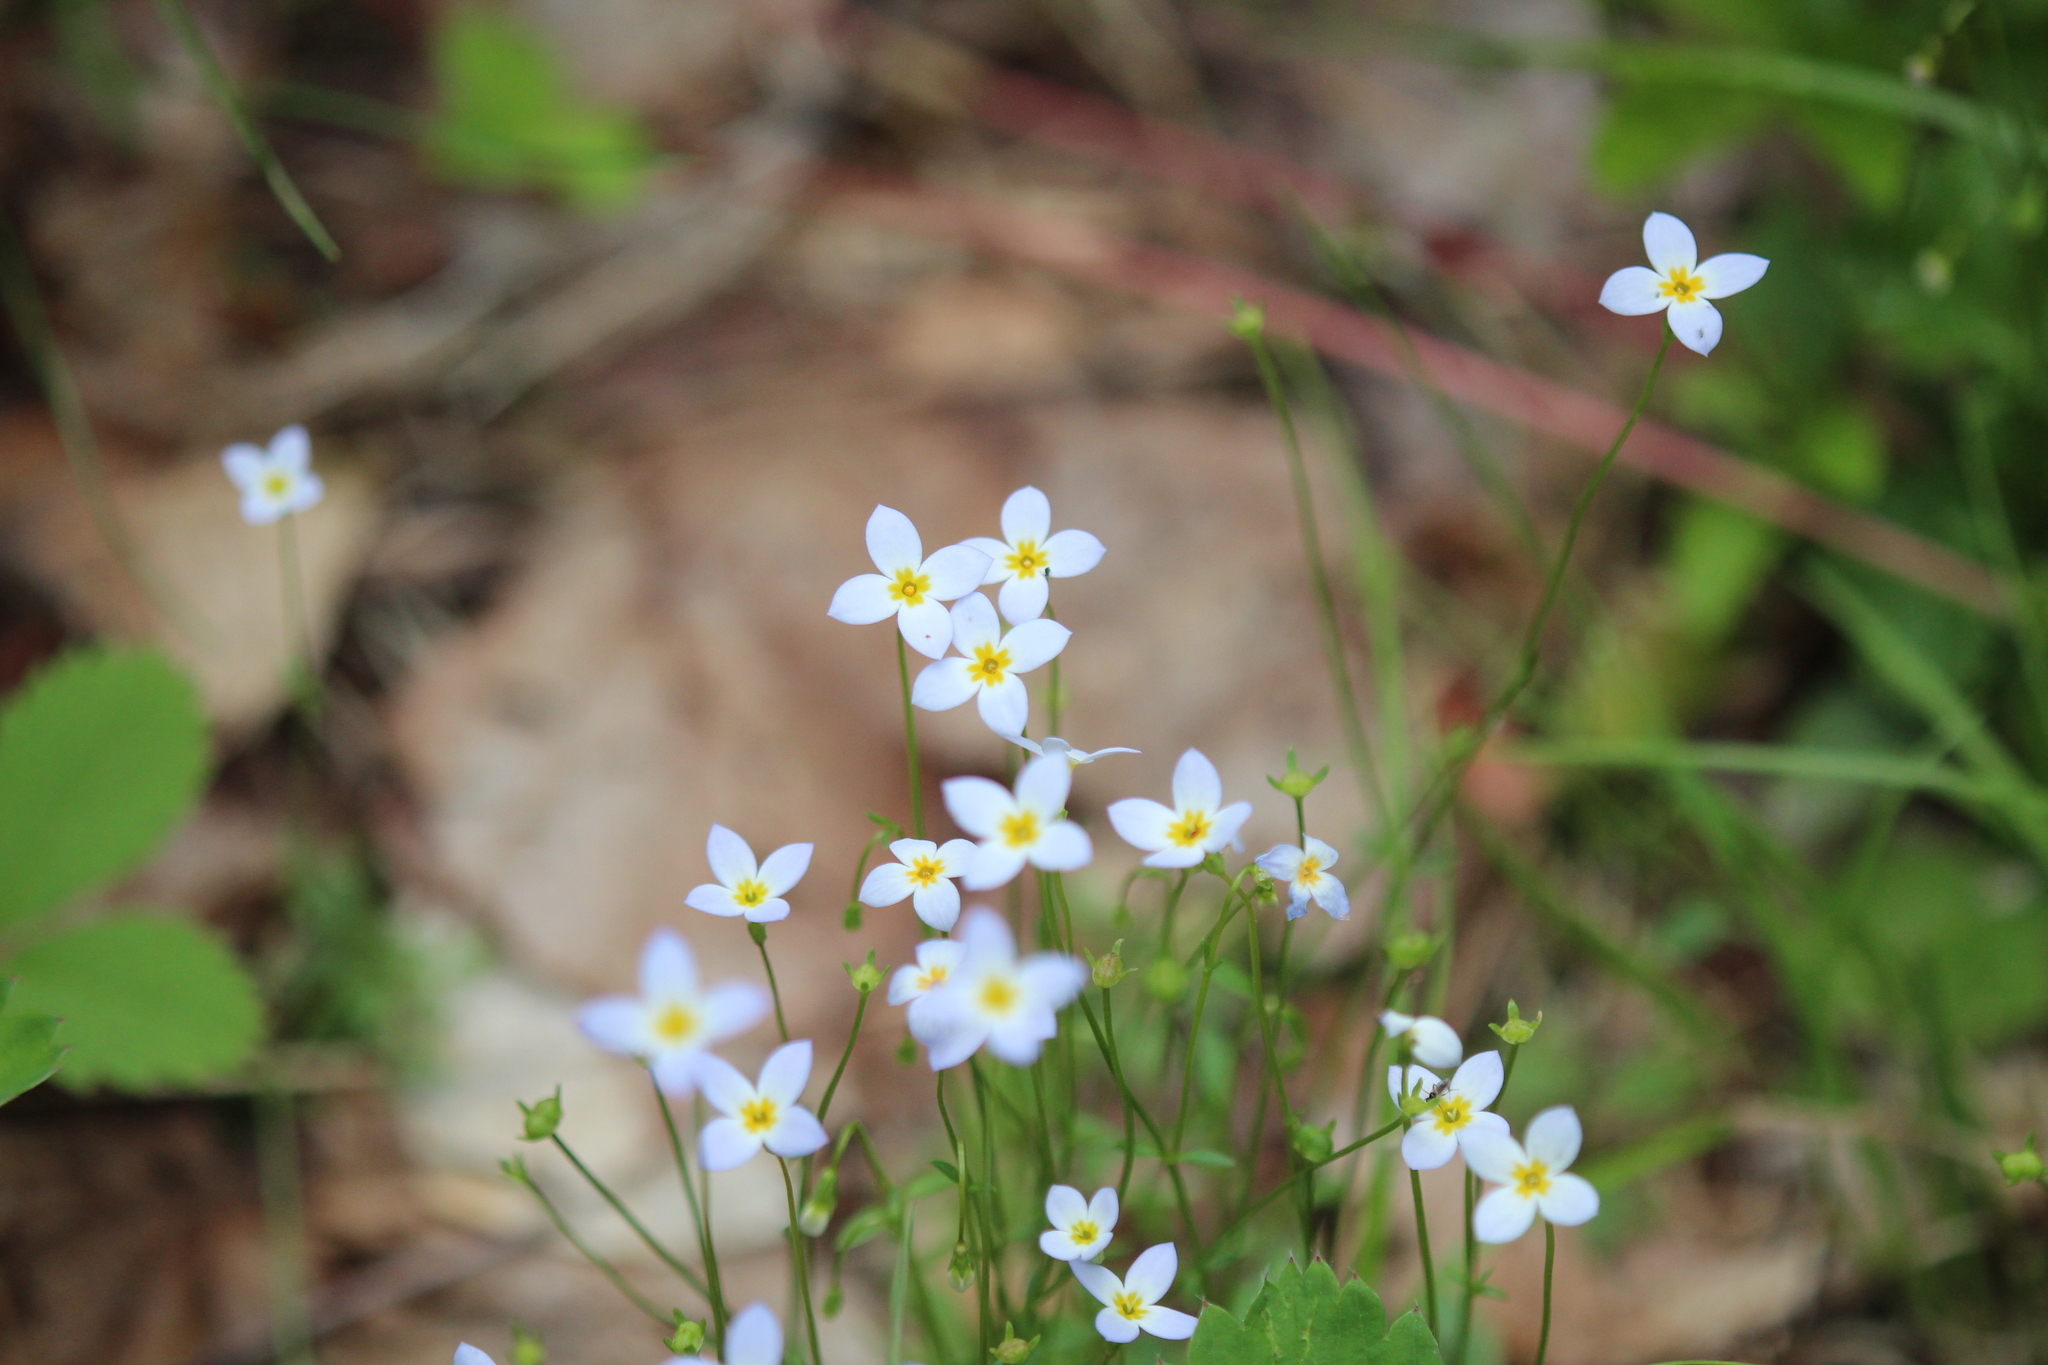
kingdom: Plantae
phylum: Tracheophyta
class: Magnoliopsida
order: Gentianales
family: Rubiaceae
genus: Houstonia
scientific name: Houstonia caerulea
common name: Bluets
